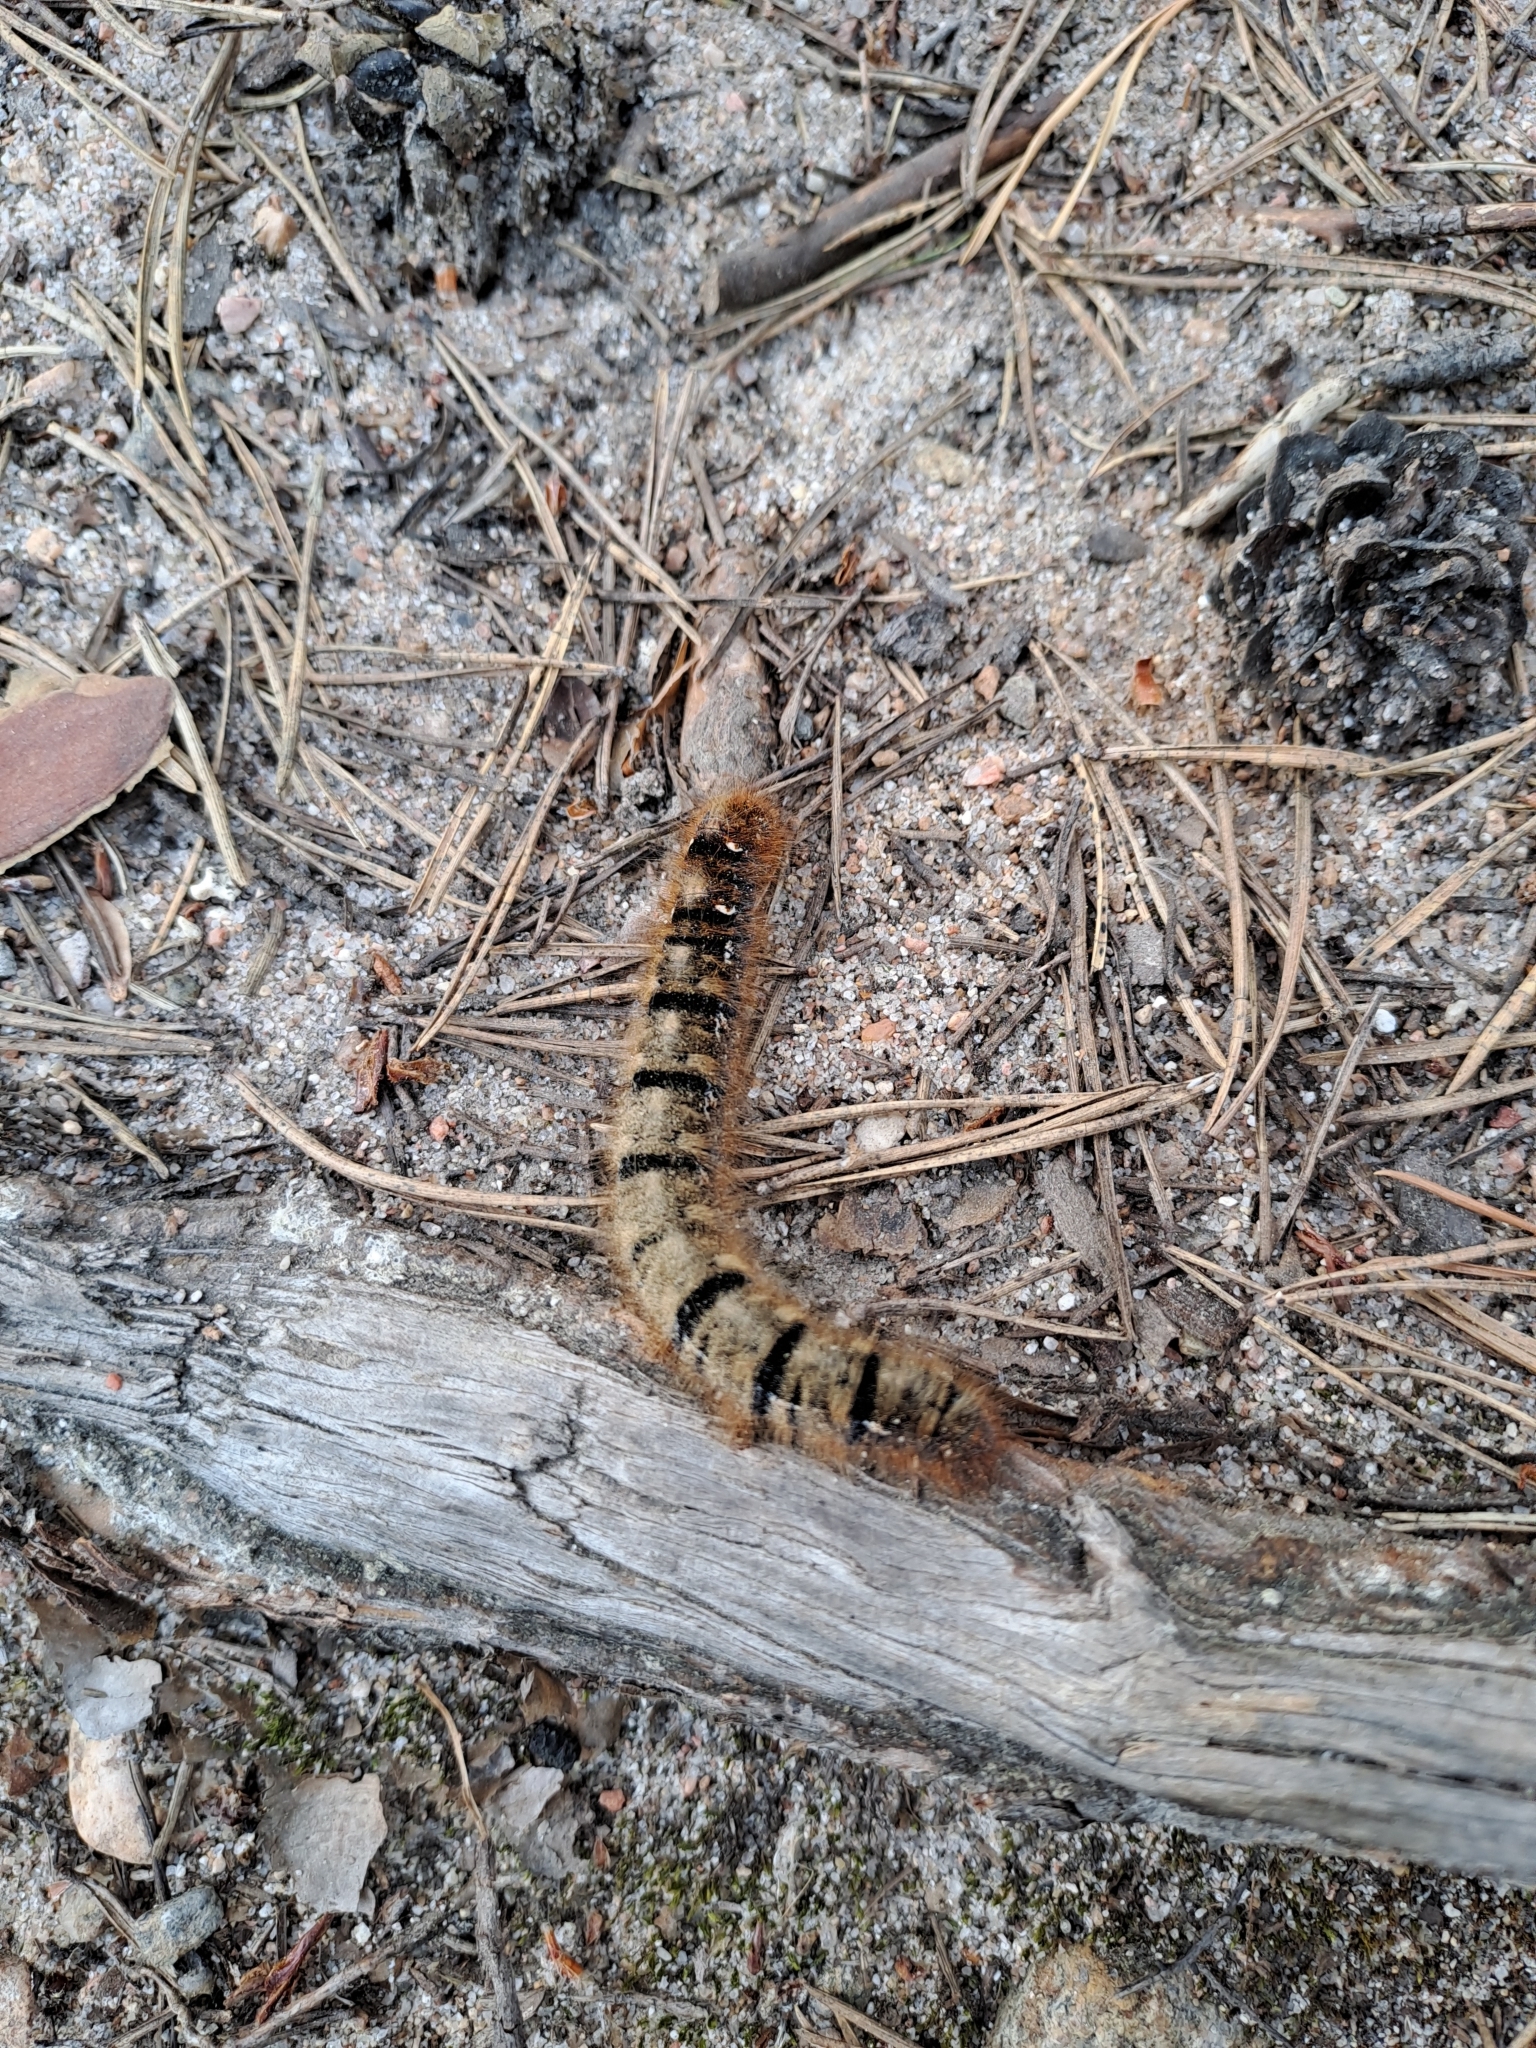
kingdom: Animalia
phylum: Arthropoda
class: Insecta
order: Lepidoptera
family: Lasiocampidae
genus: Lasiocampa
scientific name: Lasiocampa quercus
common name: Oak eggar
